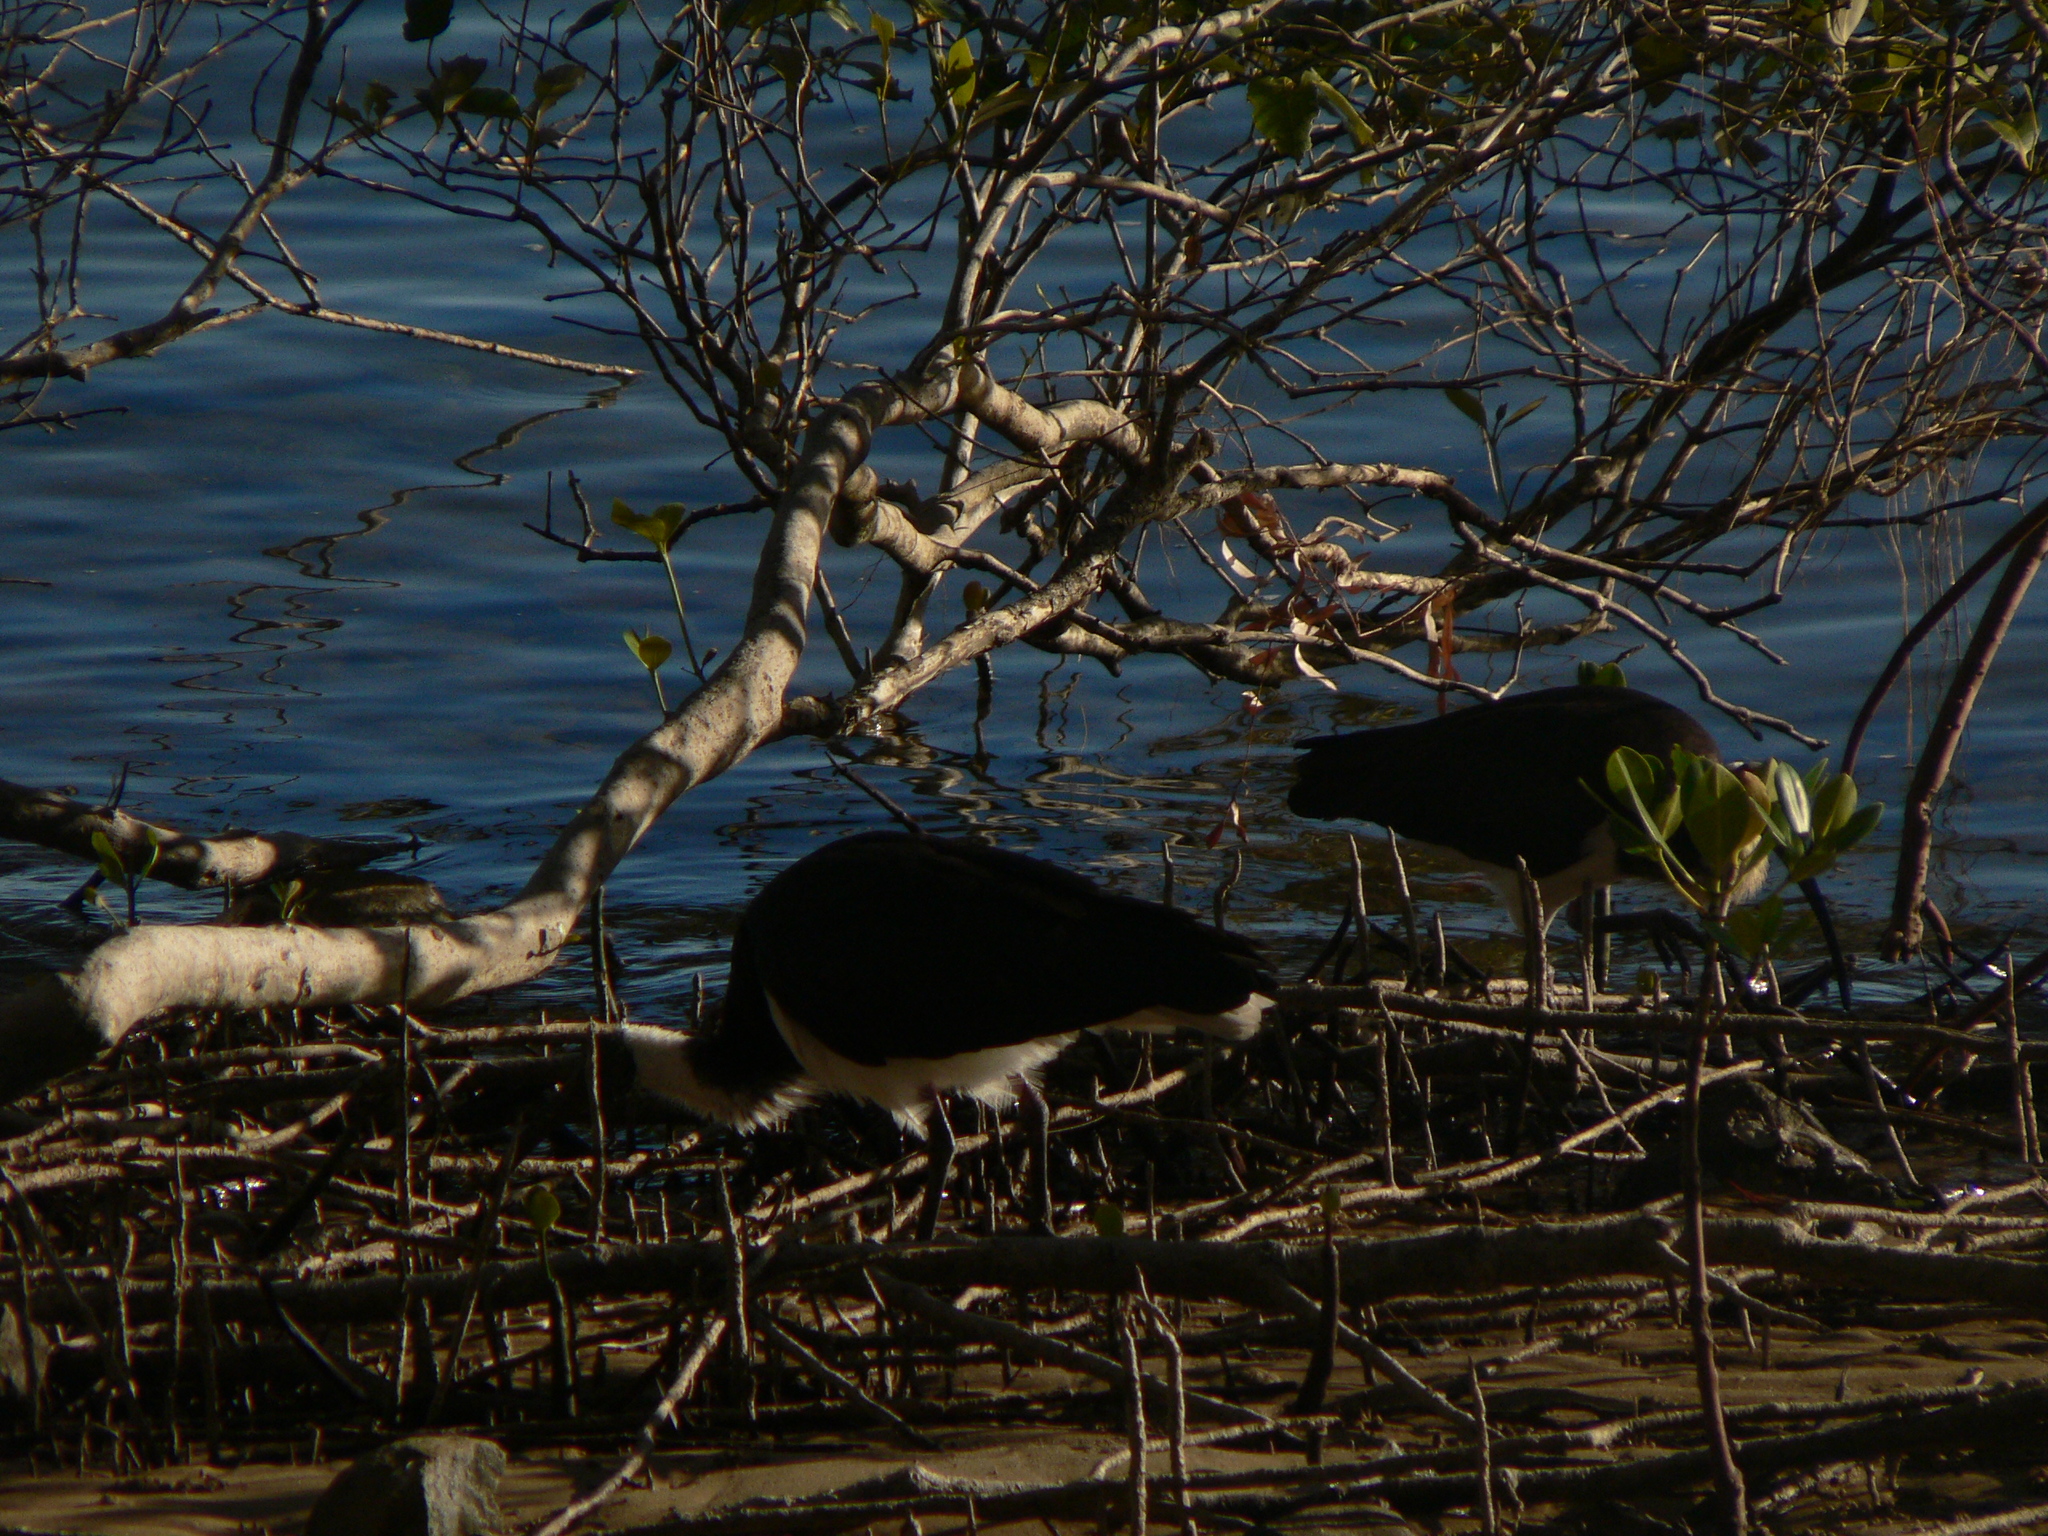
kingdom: Animalia
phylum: Chordata
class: Aves
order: Pelecaniformes
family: Threskiornithidae
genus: Threskiornis
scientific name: Threskiornis spinicollis
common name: Straw-necked ibis
